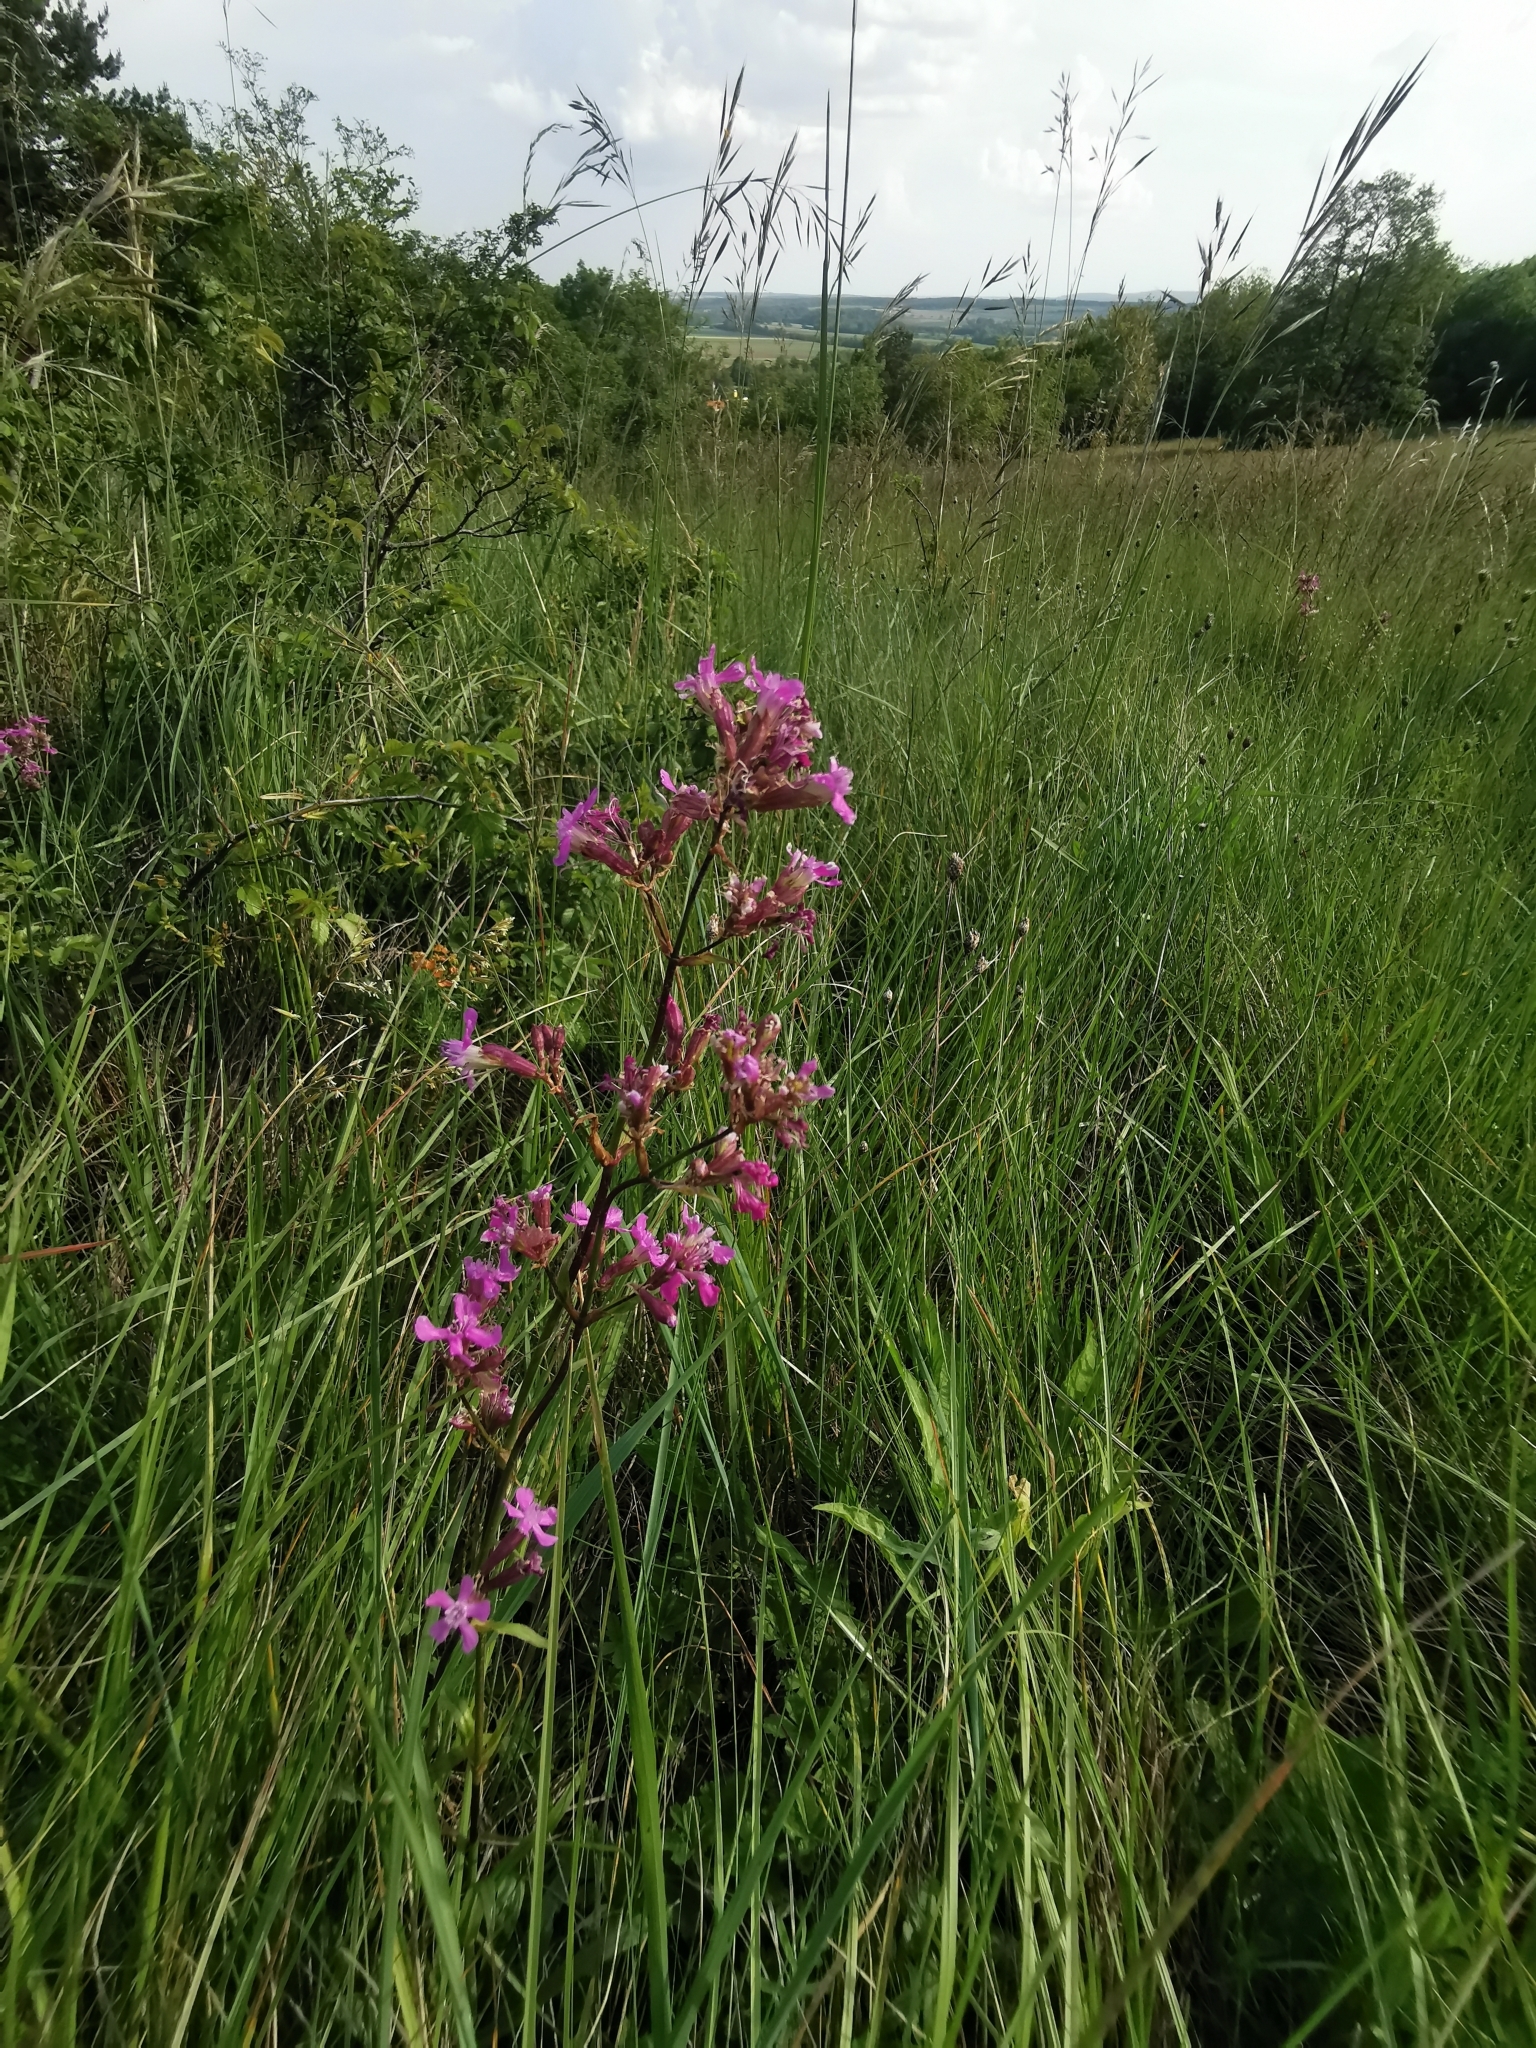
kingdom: Plantae
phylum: Tracheophyta
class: Magnoliopsida
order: Caryophyllales
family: Caryophyllaceae
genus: Viscaria
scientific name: Viscaria vulgaris
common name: Clammy campion
